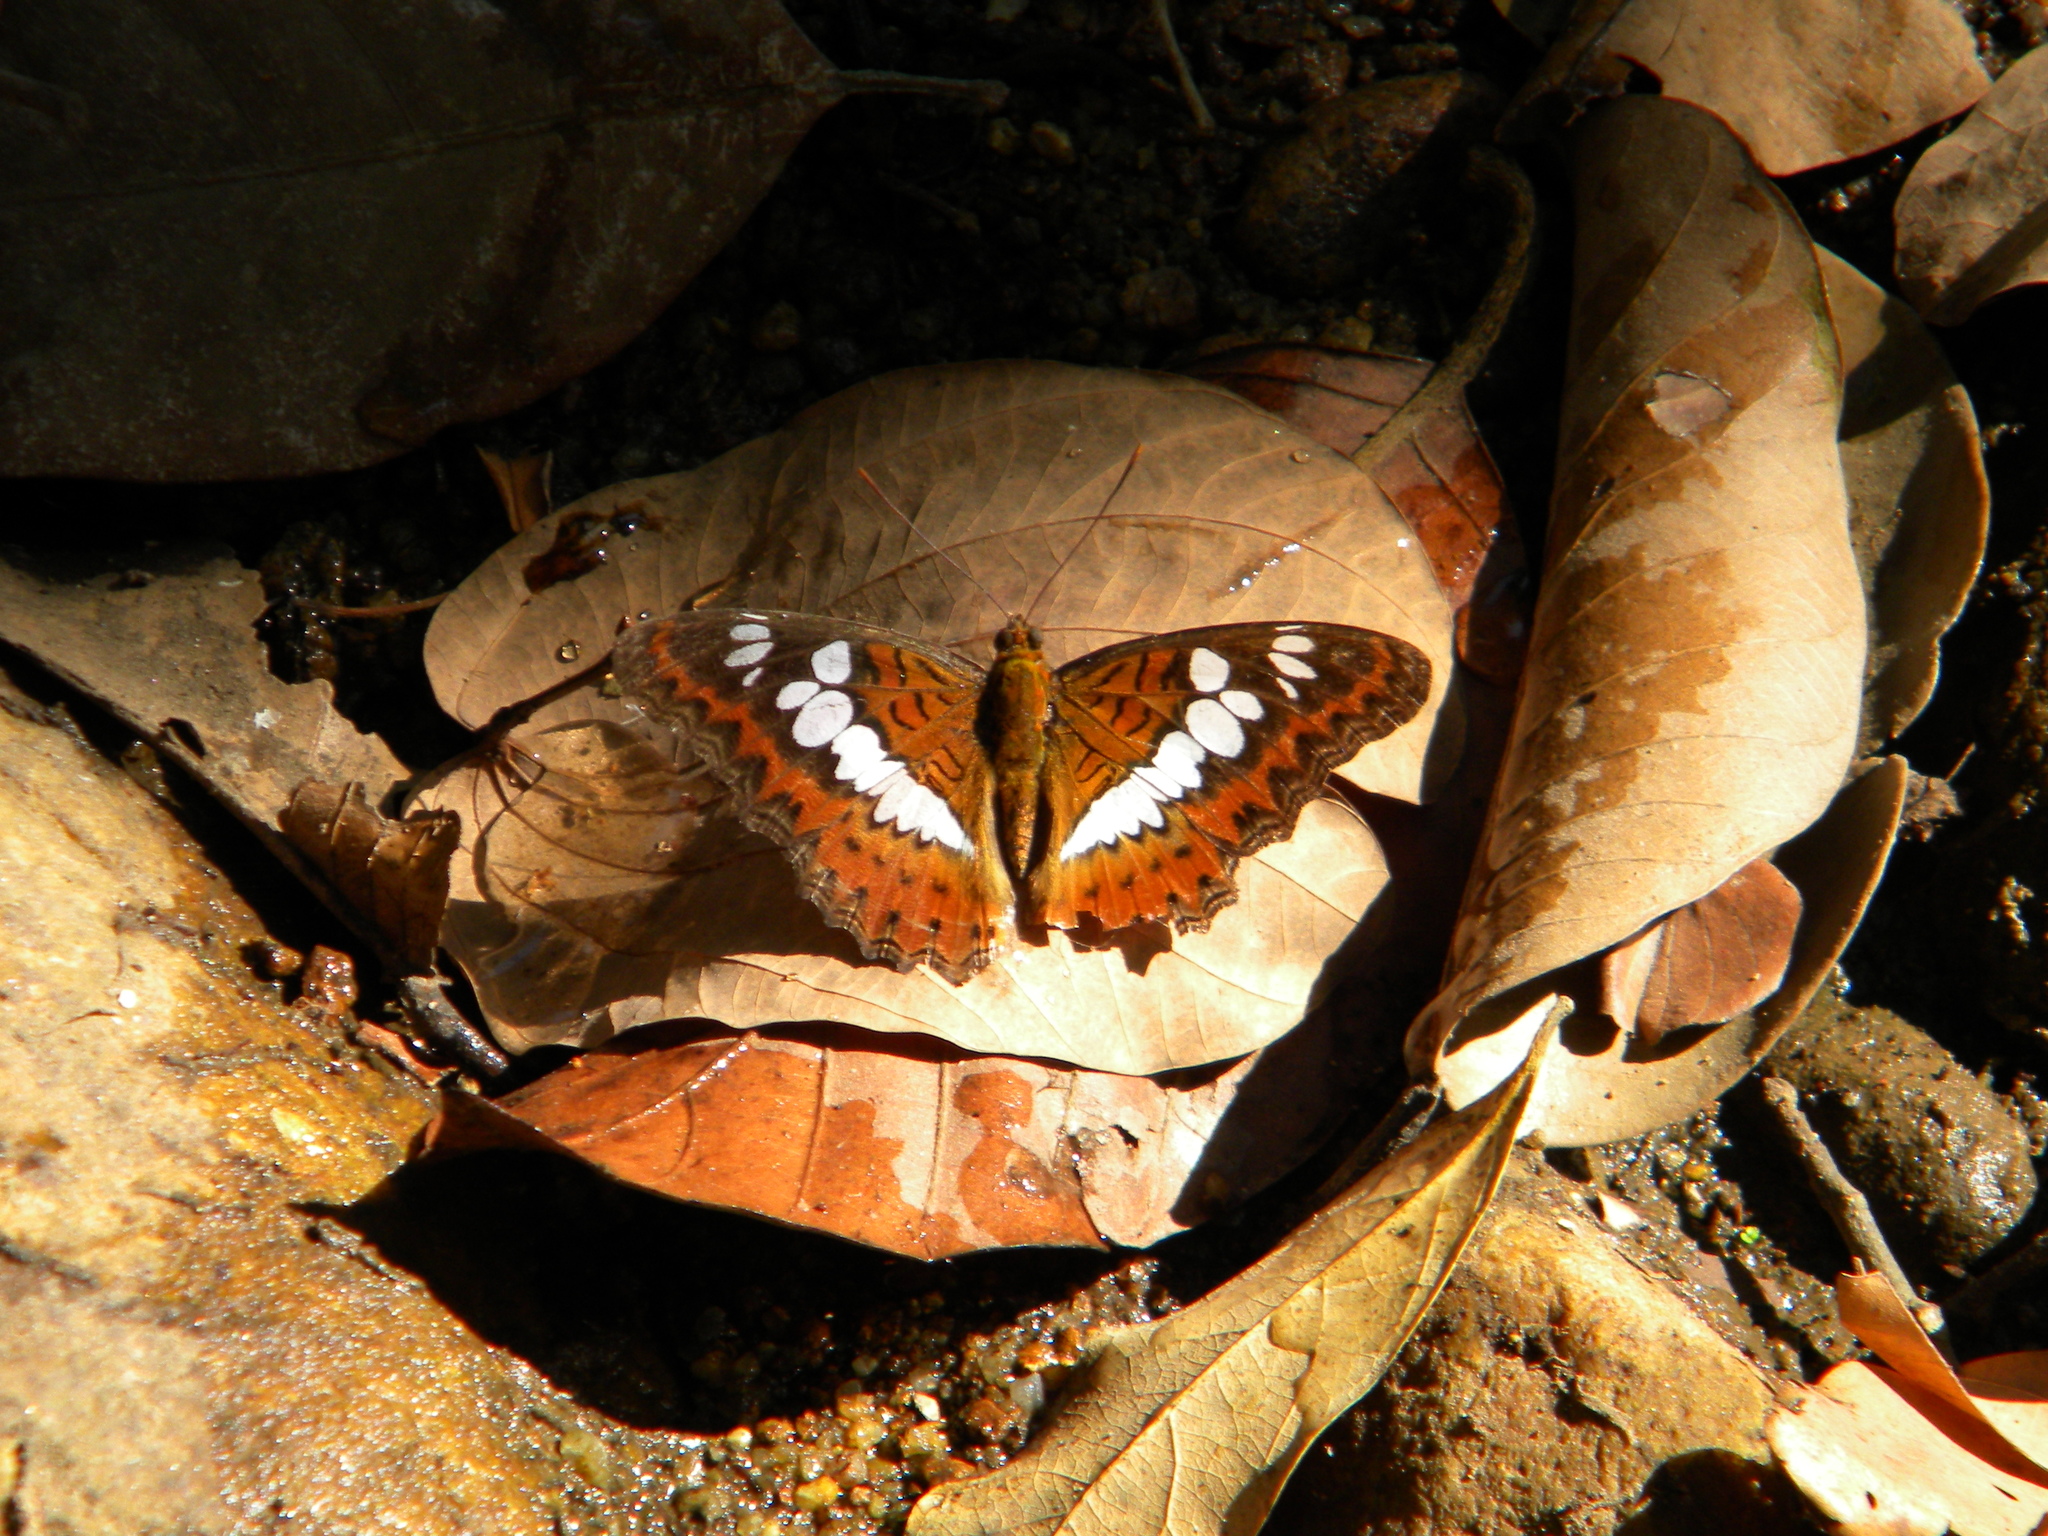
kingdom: Animalia
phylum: Arthropoda
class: Insecta
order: Lepidoptera
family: Nymphalidae
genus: Limenitis
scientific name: Limenitis Moduza procris
